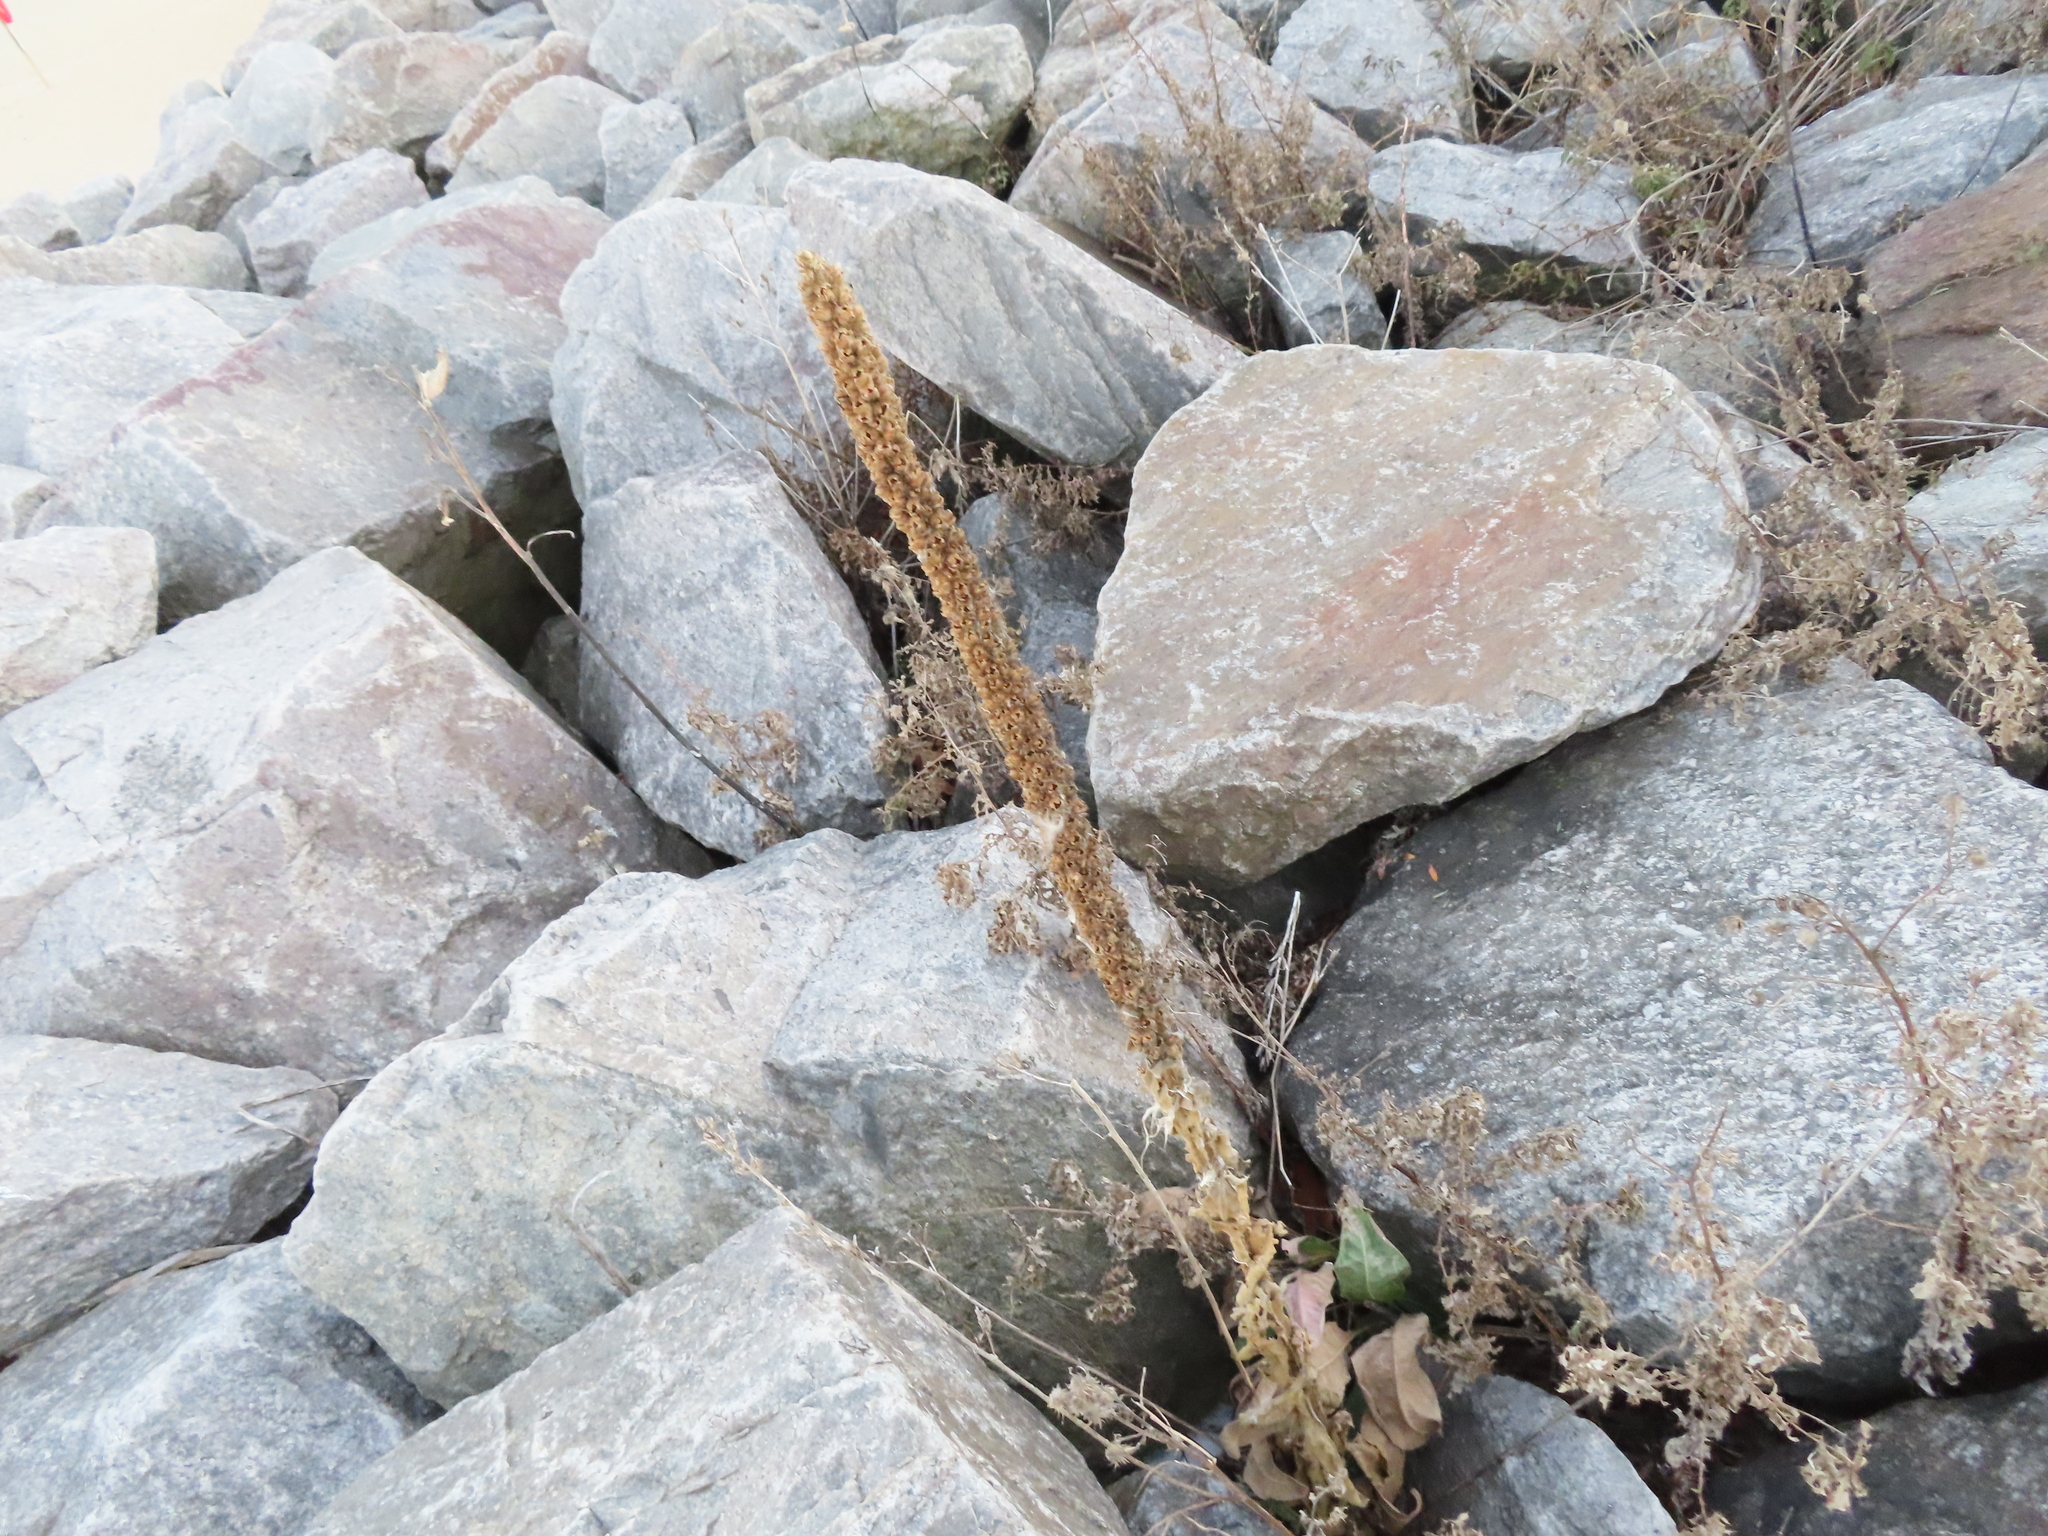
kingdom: Plantae
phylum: Tracheophyta
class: Magnoliopsida
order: Lamiales
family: Scrophulariaceae
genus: Verbascum
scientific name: Verbascum thapsus
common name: Common mullein
